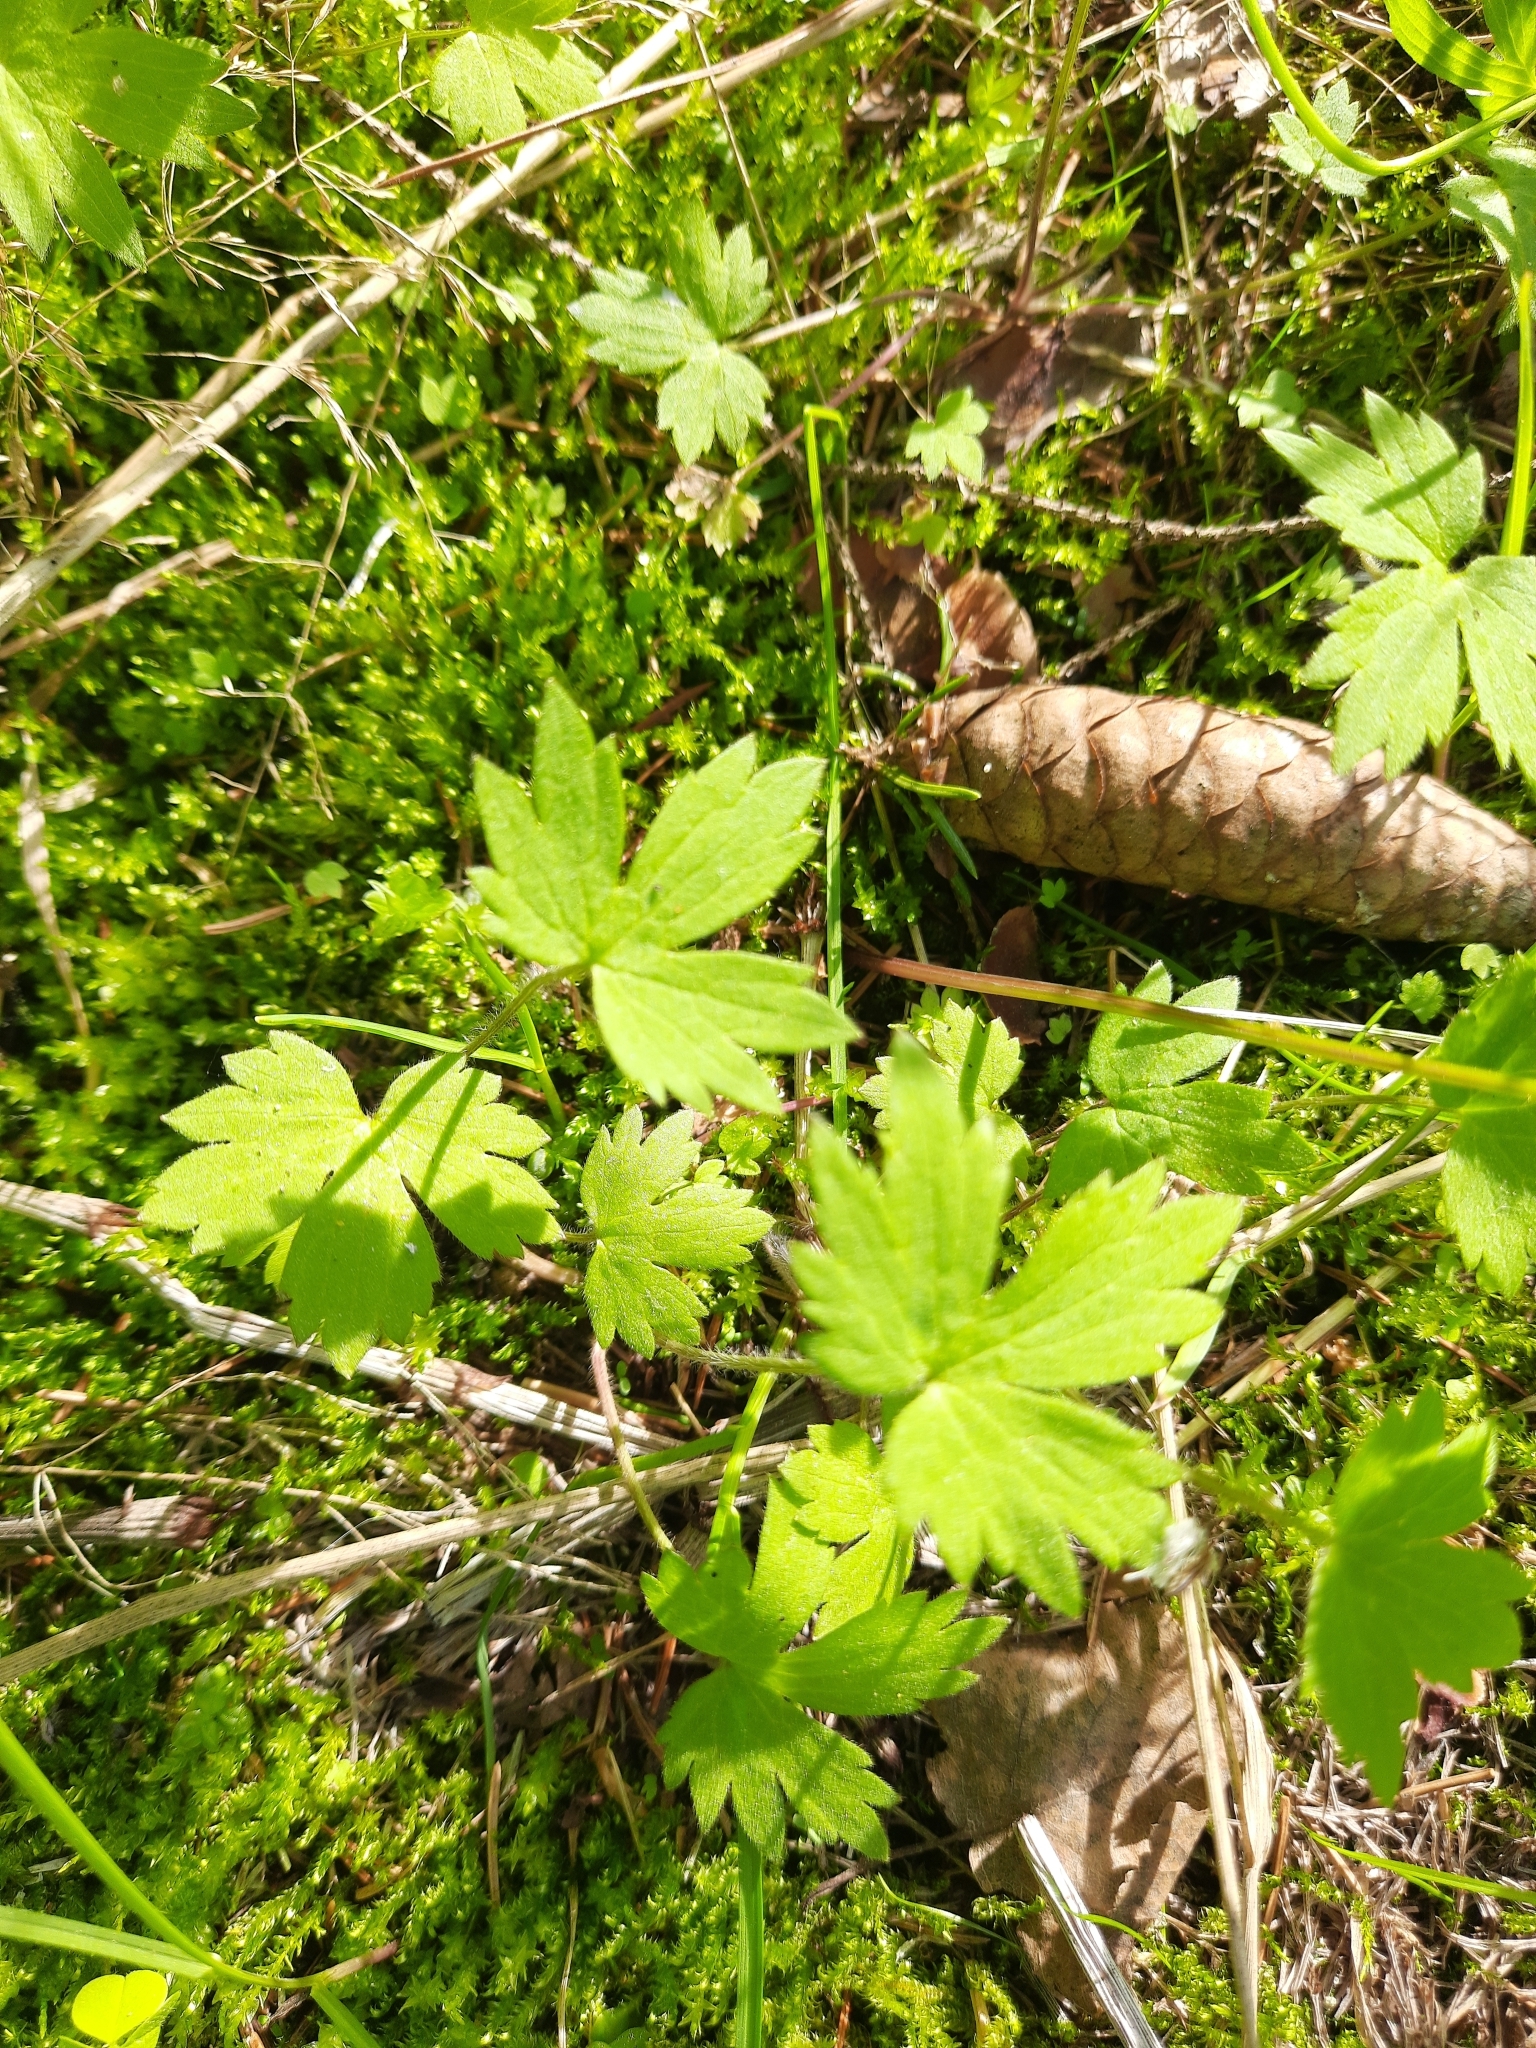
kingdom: Plantae
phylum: Tracheophyta
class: Magnoliopsida
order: Ranunculales
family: Ranunculaceae
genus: Ranunculus
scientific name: Ranunculus propinquus
